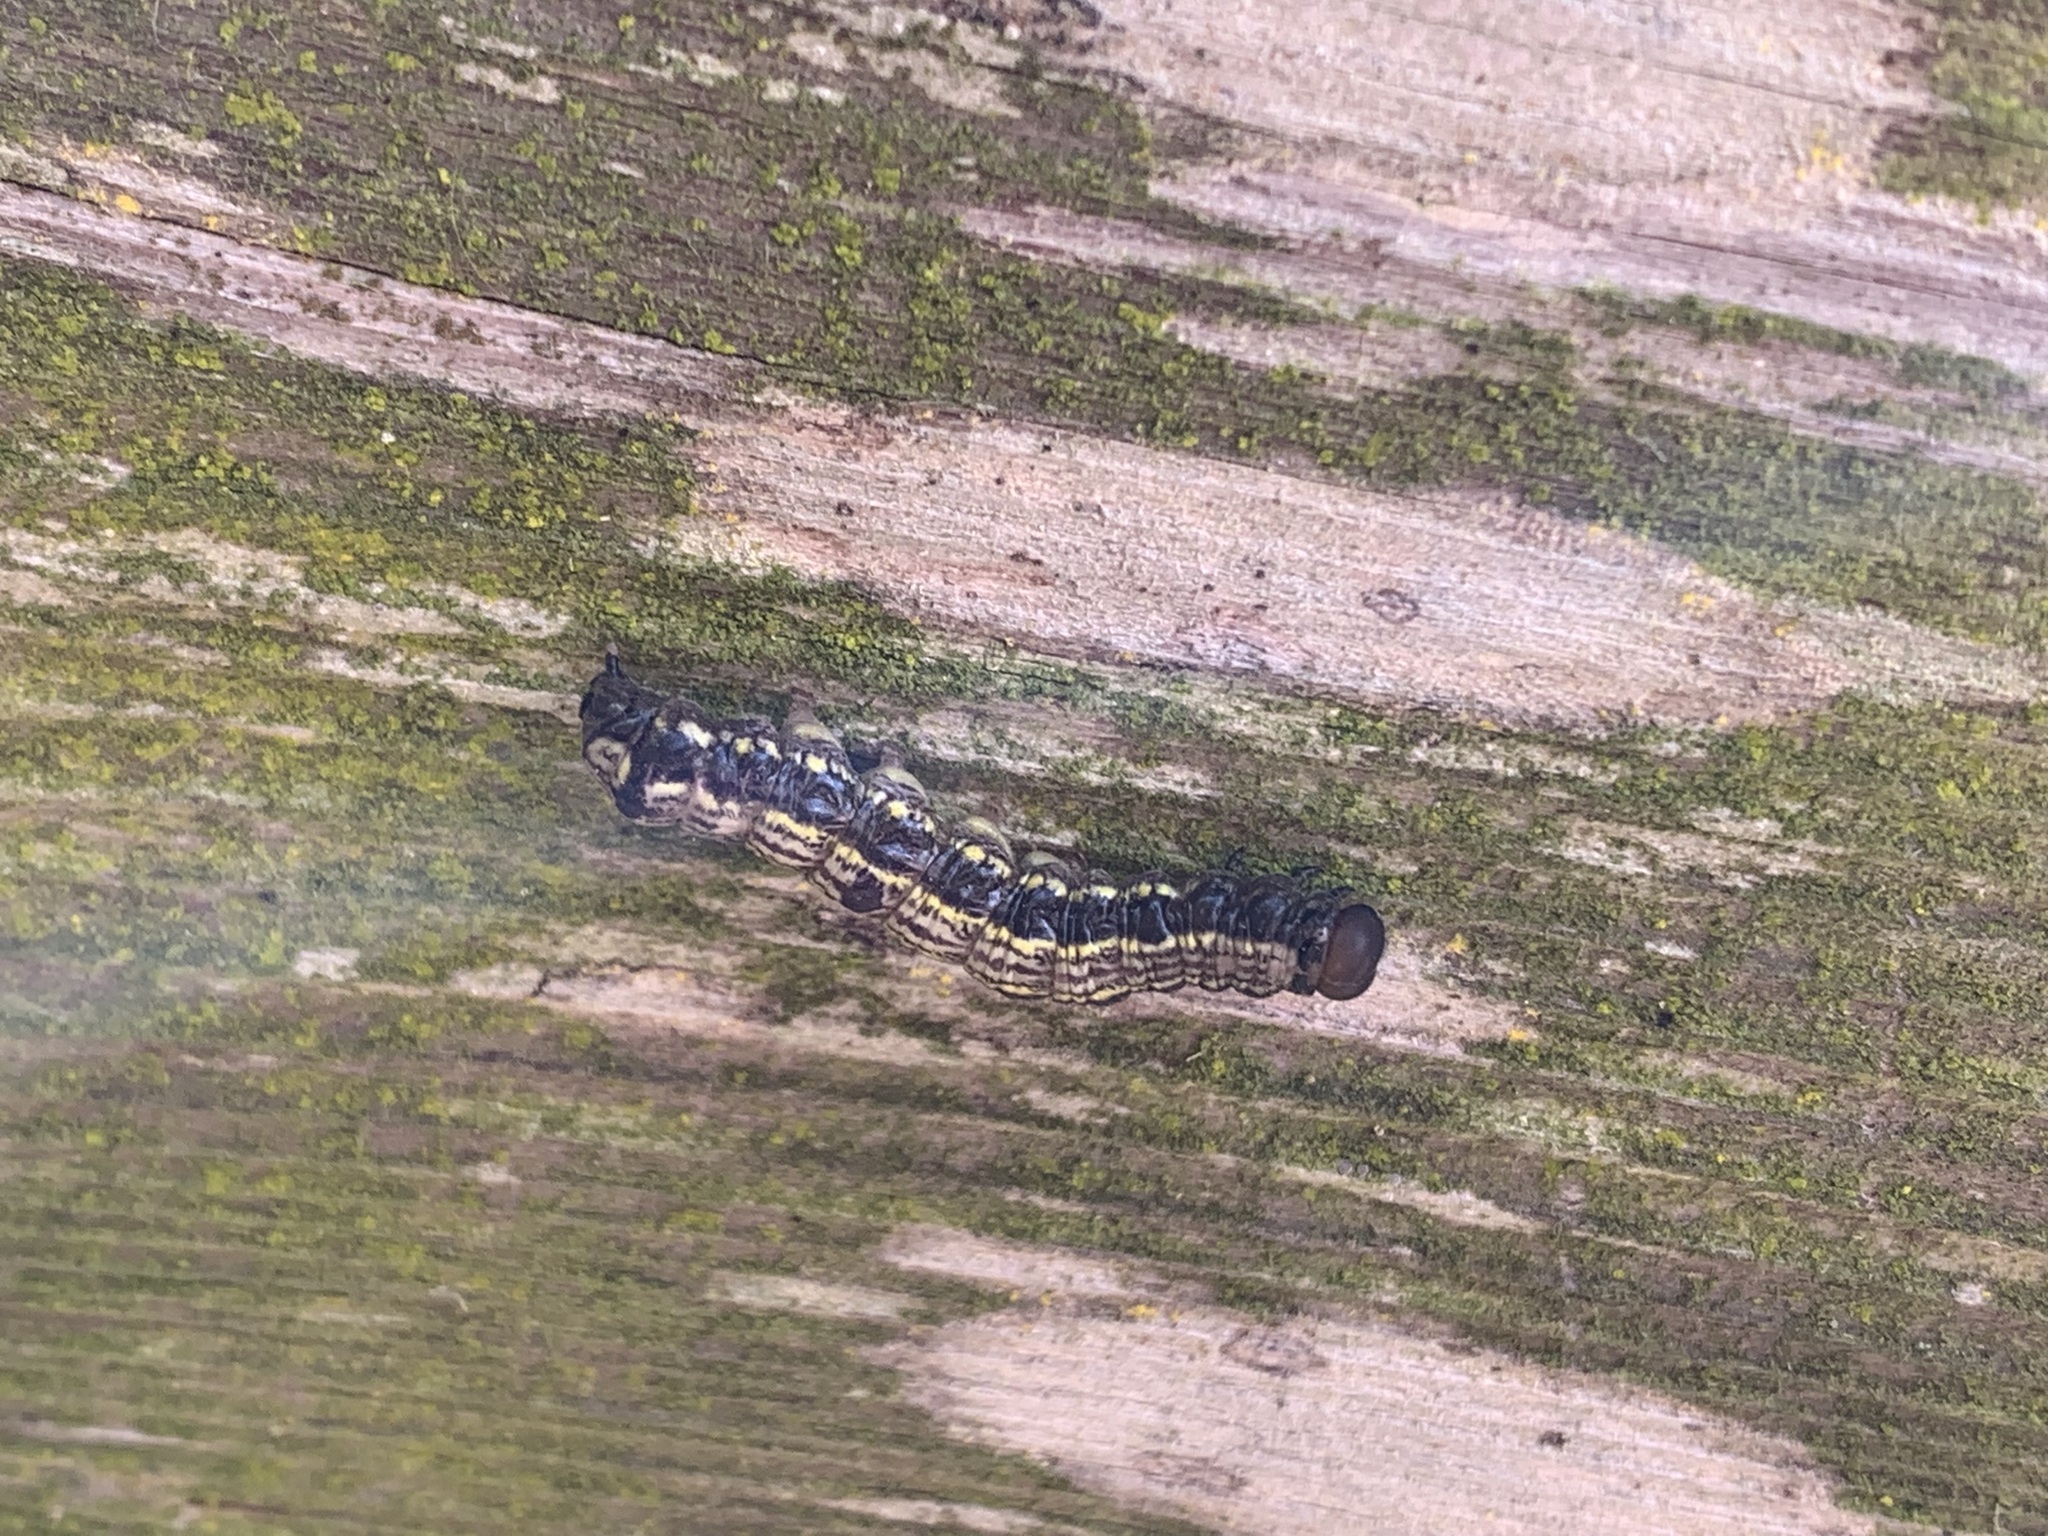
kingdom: Animalia
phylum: Arthropoda
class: Insecta
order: Lepidoptera
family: Notodontidae
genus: Phryganidia
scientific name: Phryganidia californica
